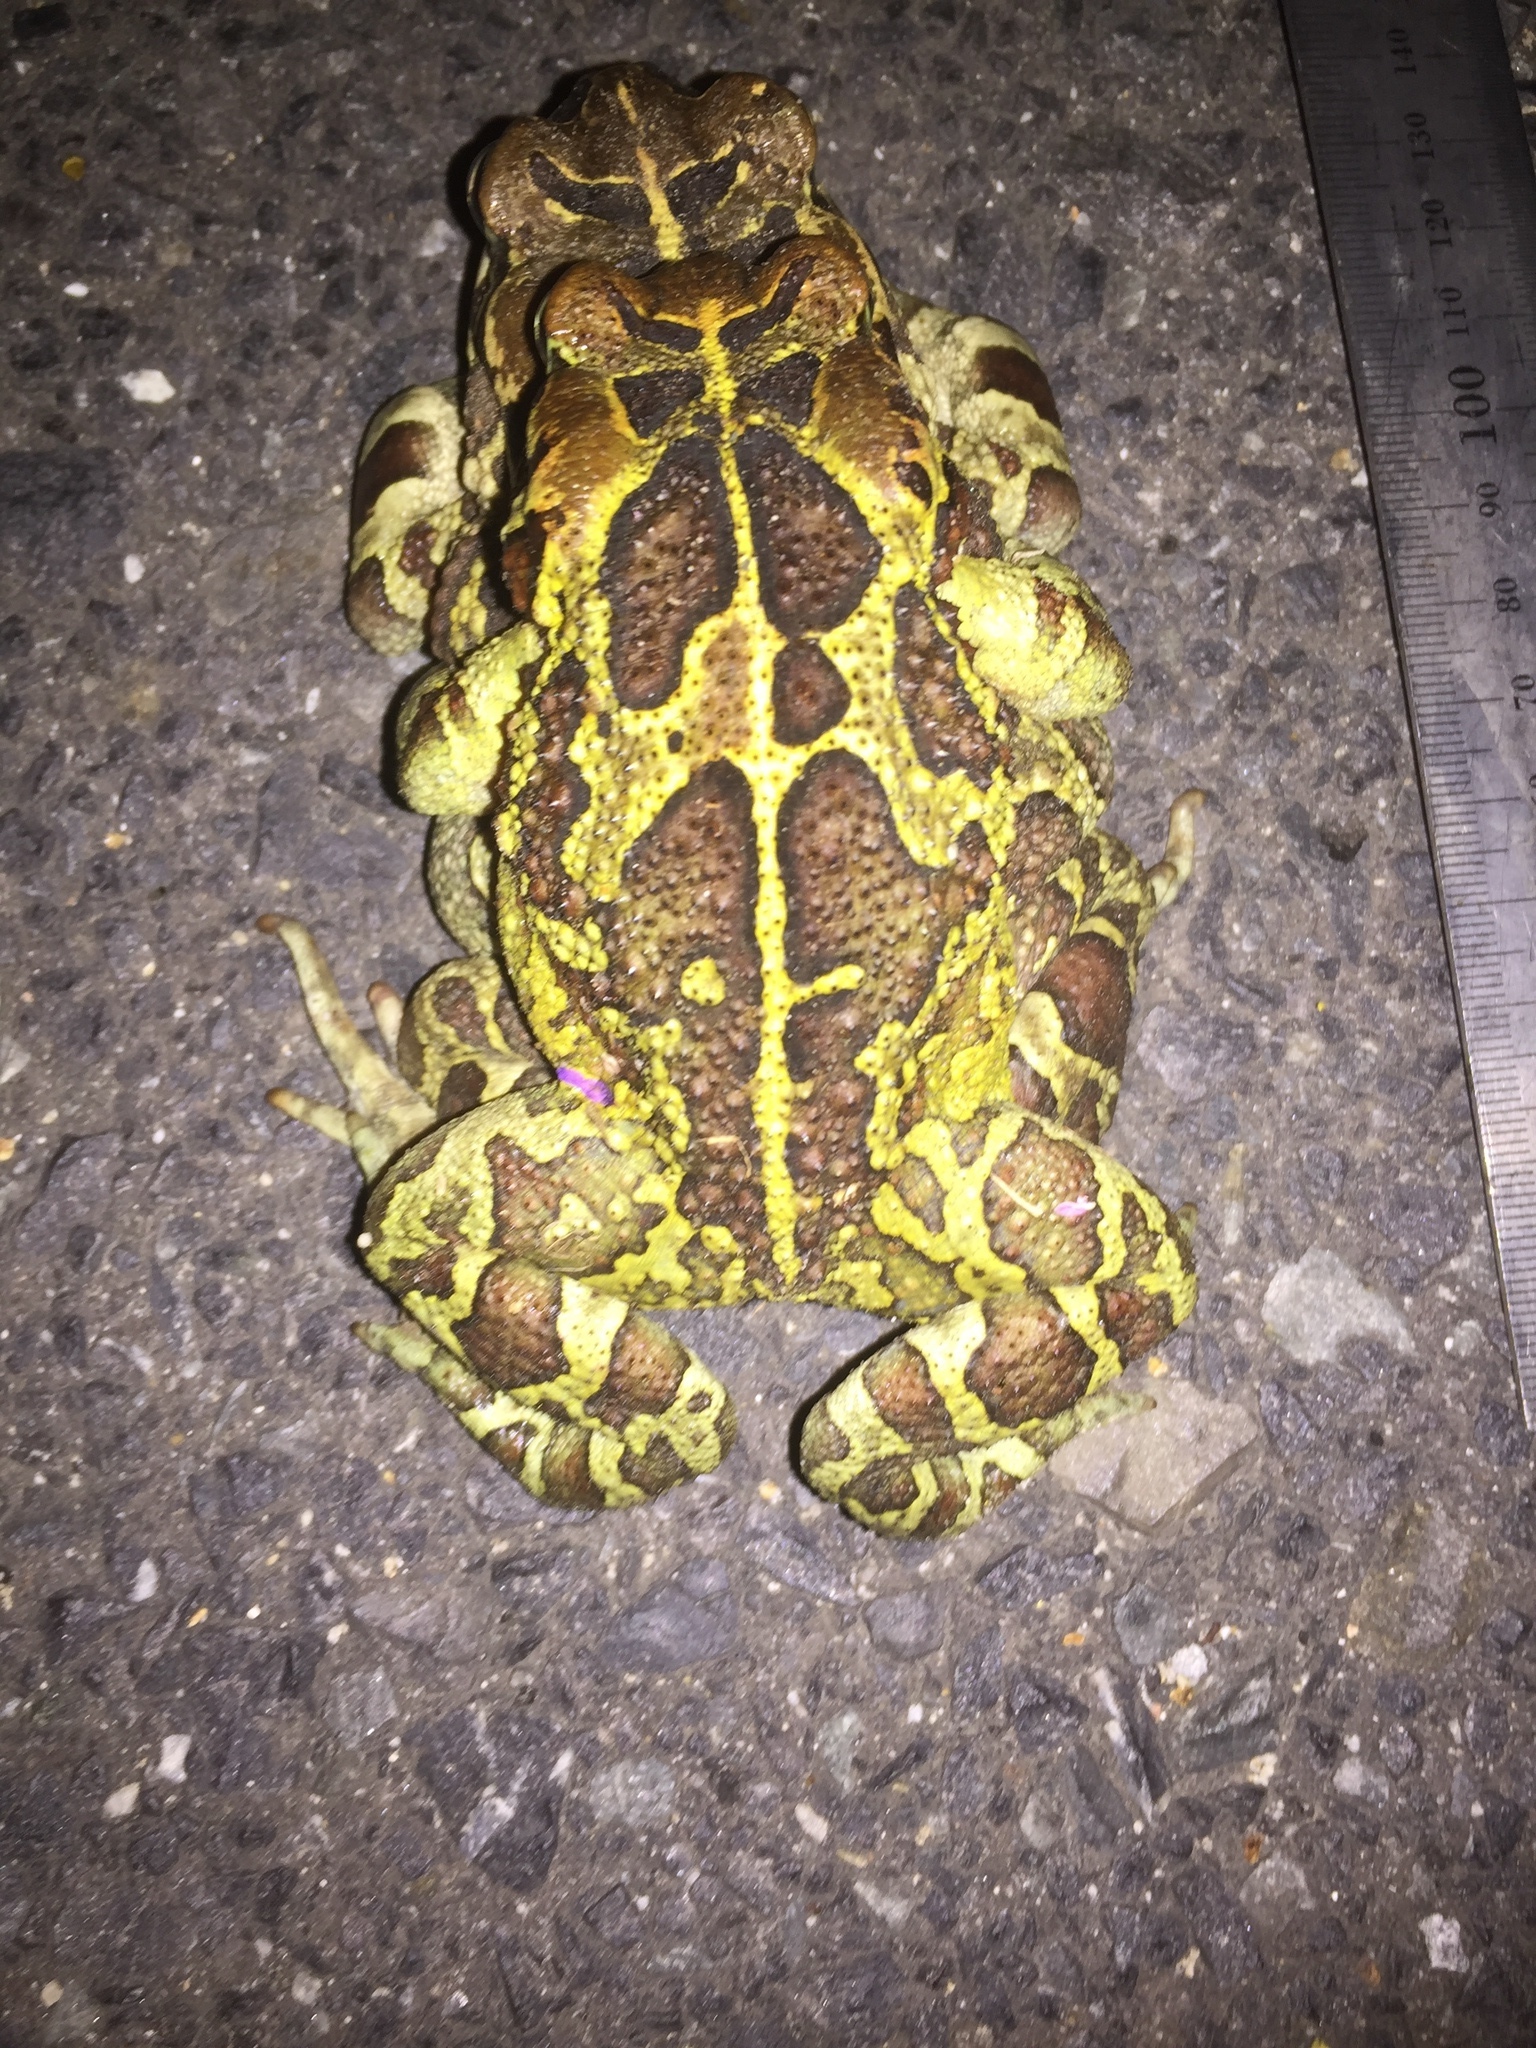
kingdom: Animalia
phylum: Chordata
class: Amphibia
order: Anura
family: Bufonidae
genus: Sclerophrys
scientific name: Sclerophrys pantherina
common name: Panther toad
